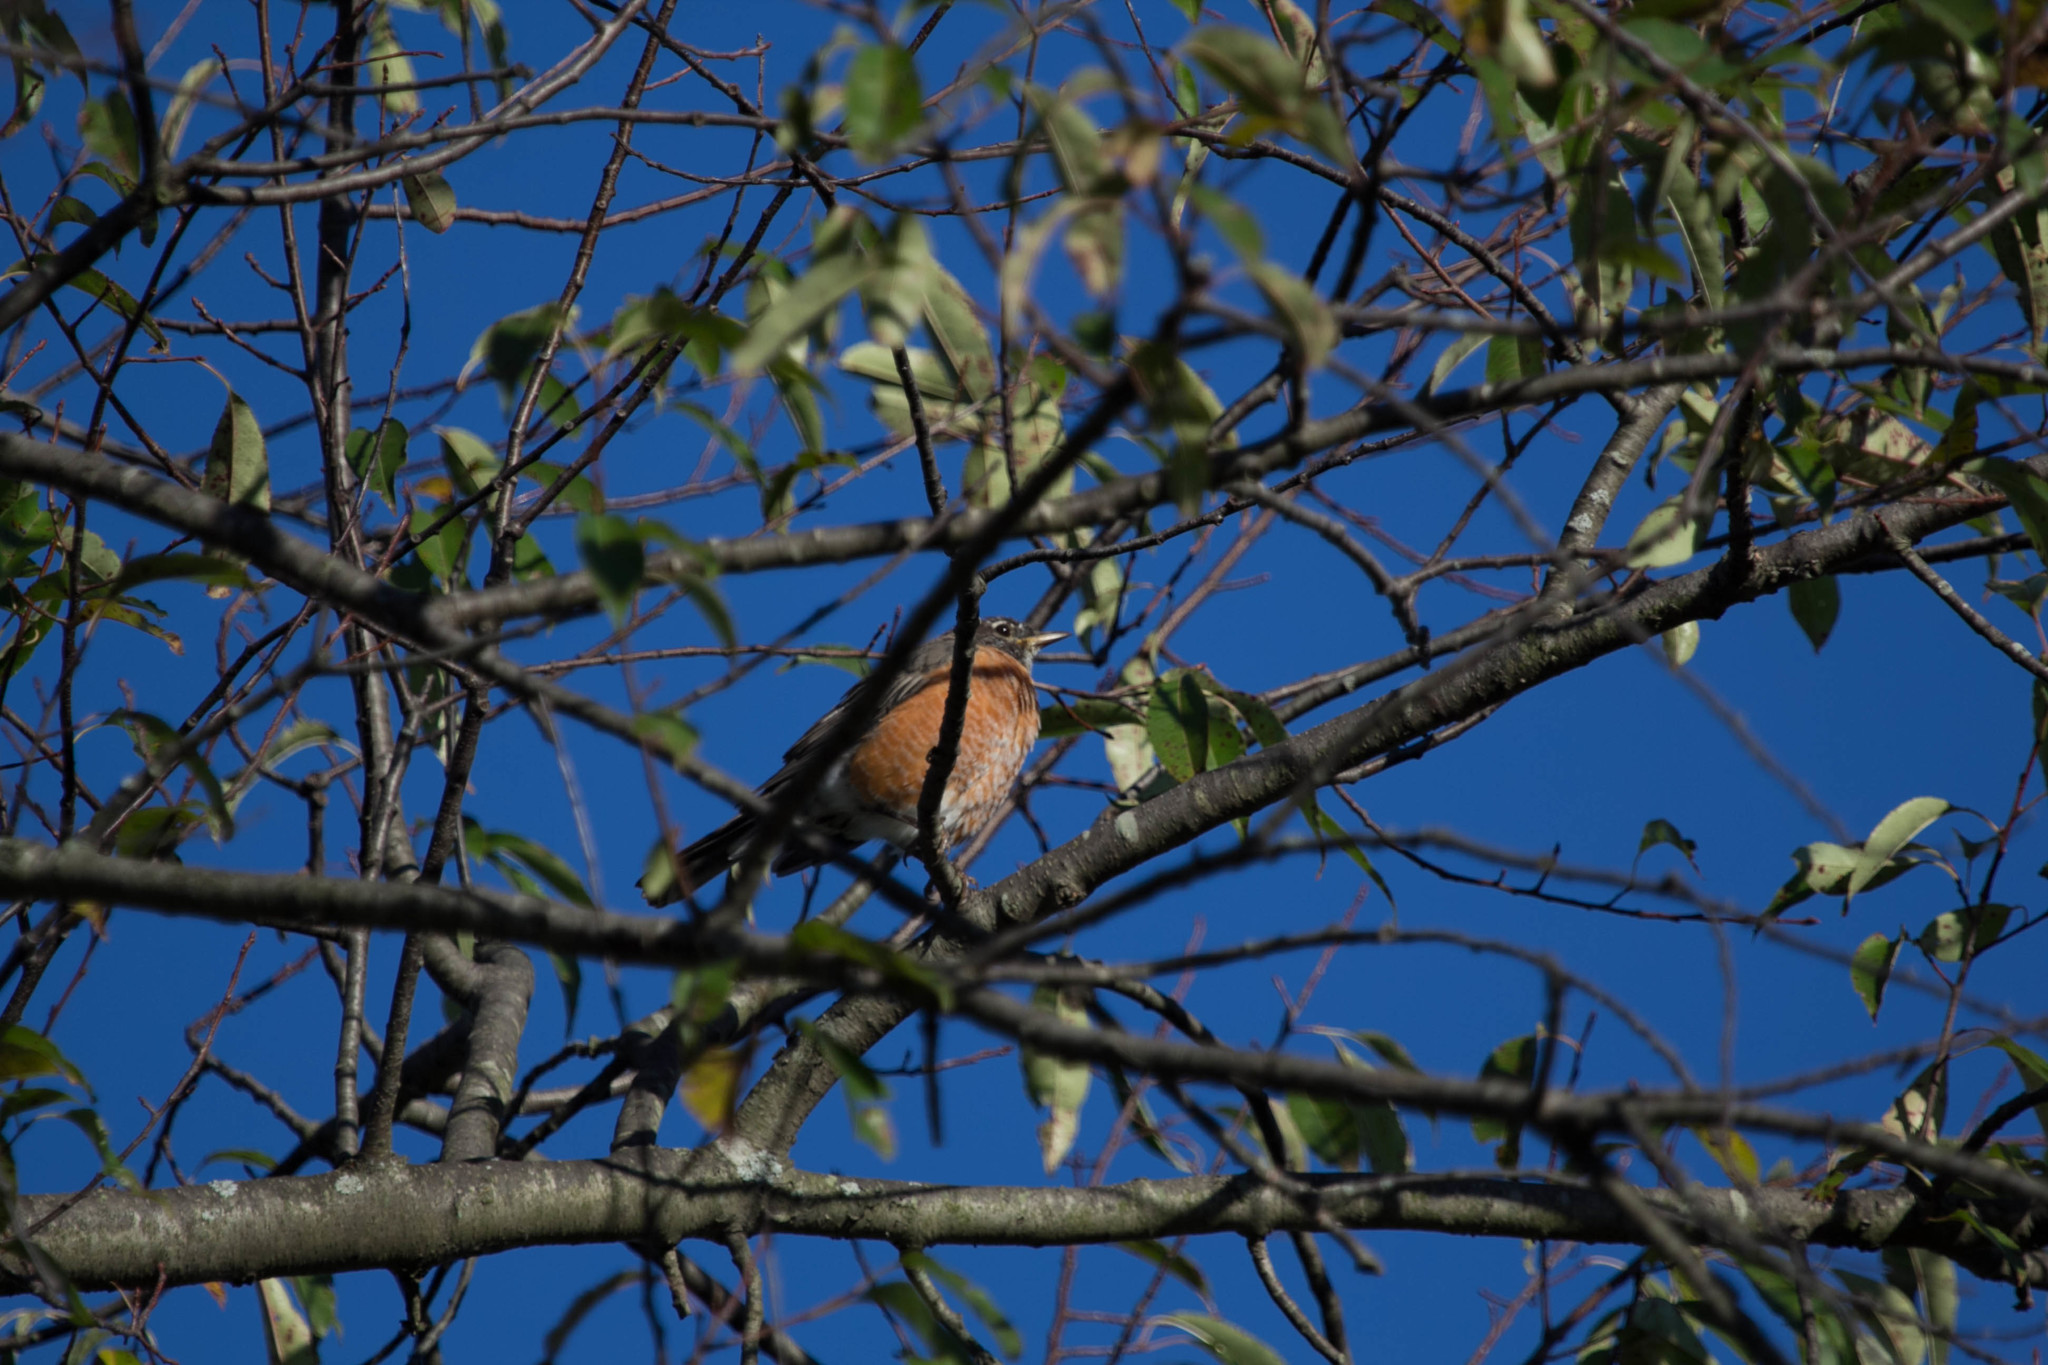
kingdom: Animalia
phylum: Chordata
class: Aves
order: Passeriformes
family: Turdidae
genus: Turdus
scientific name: Turdus migratorius
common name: American robin
